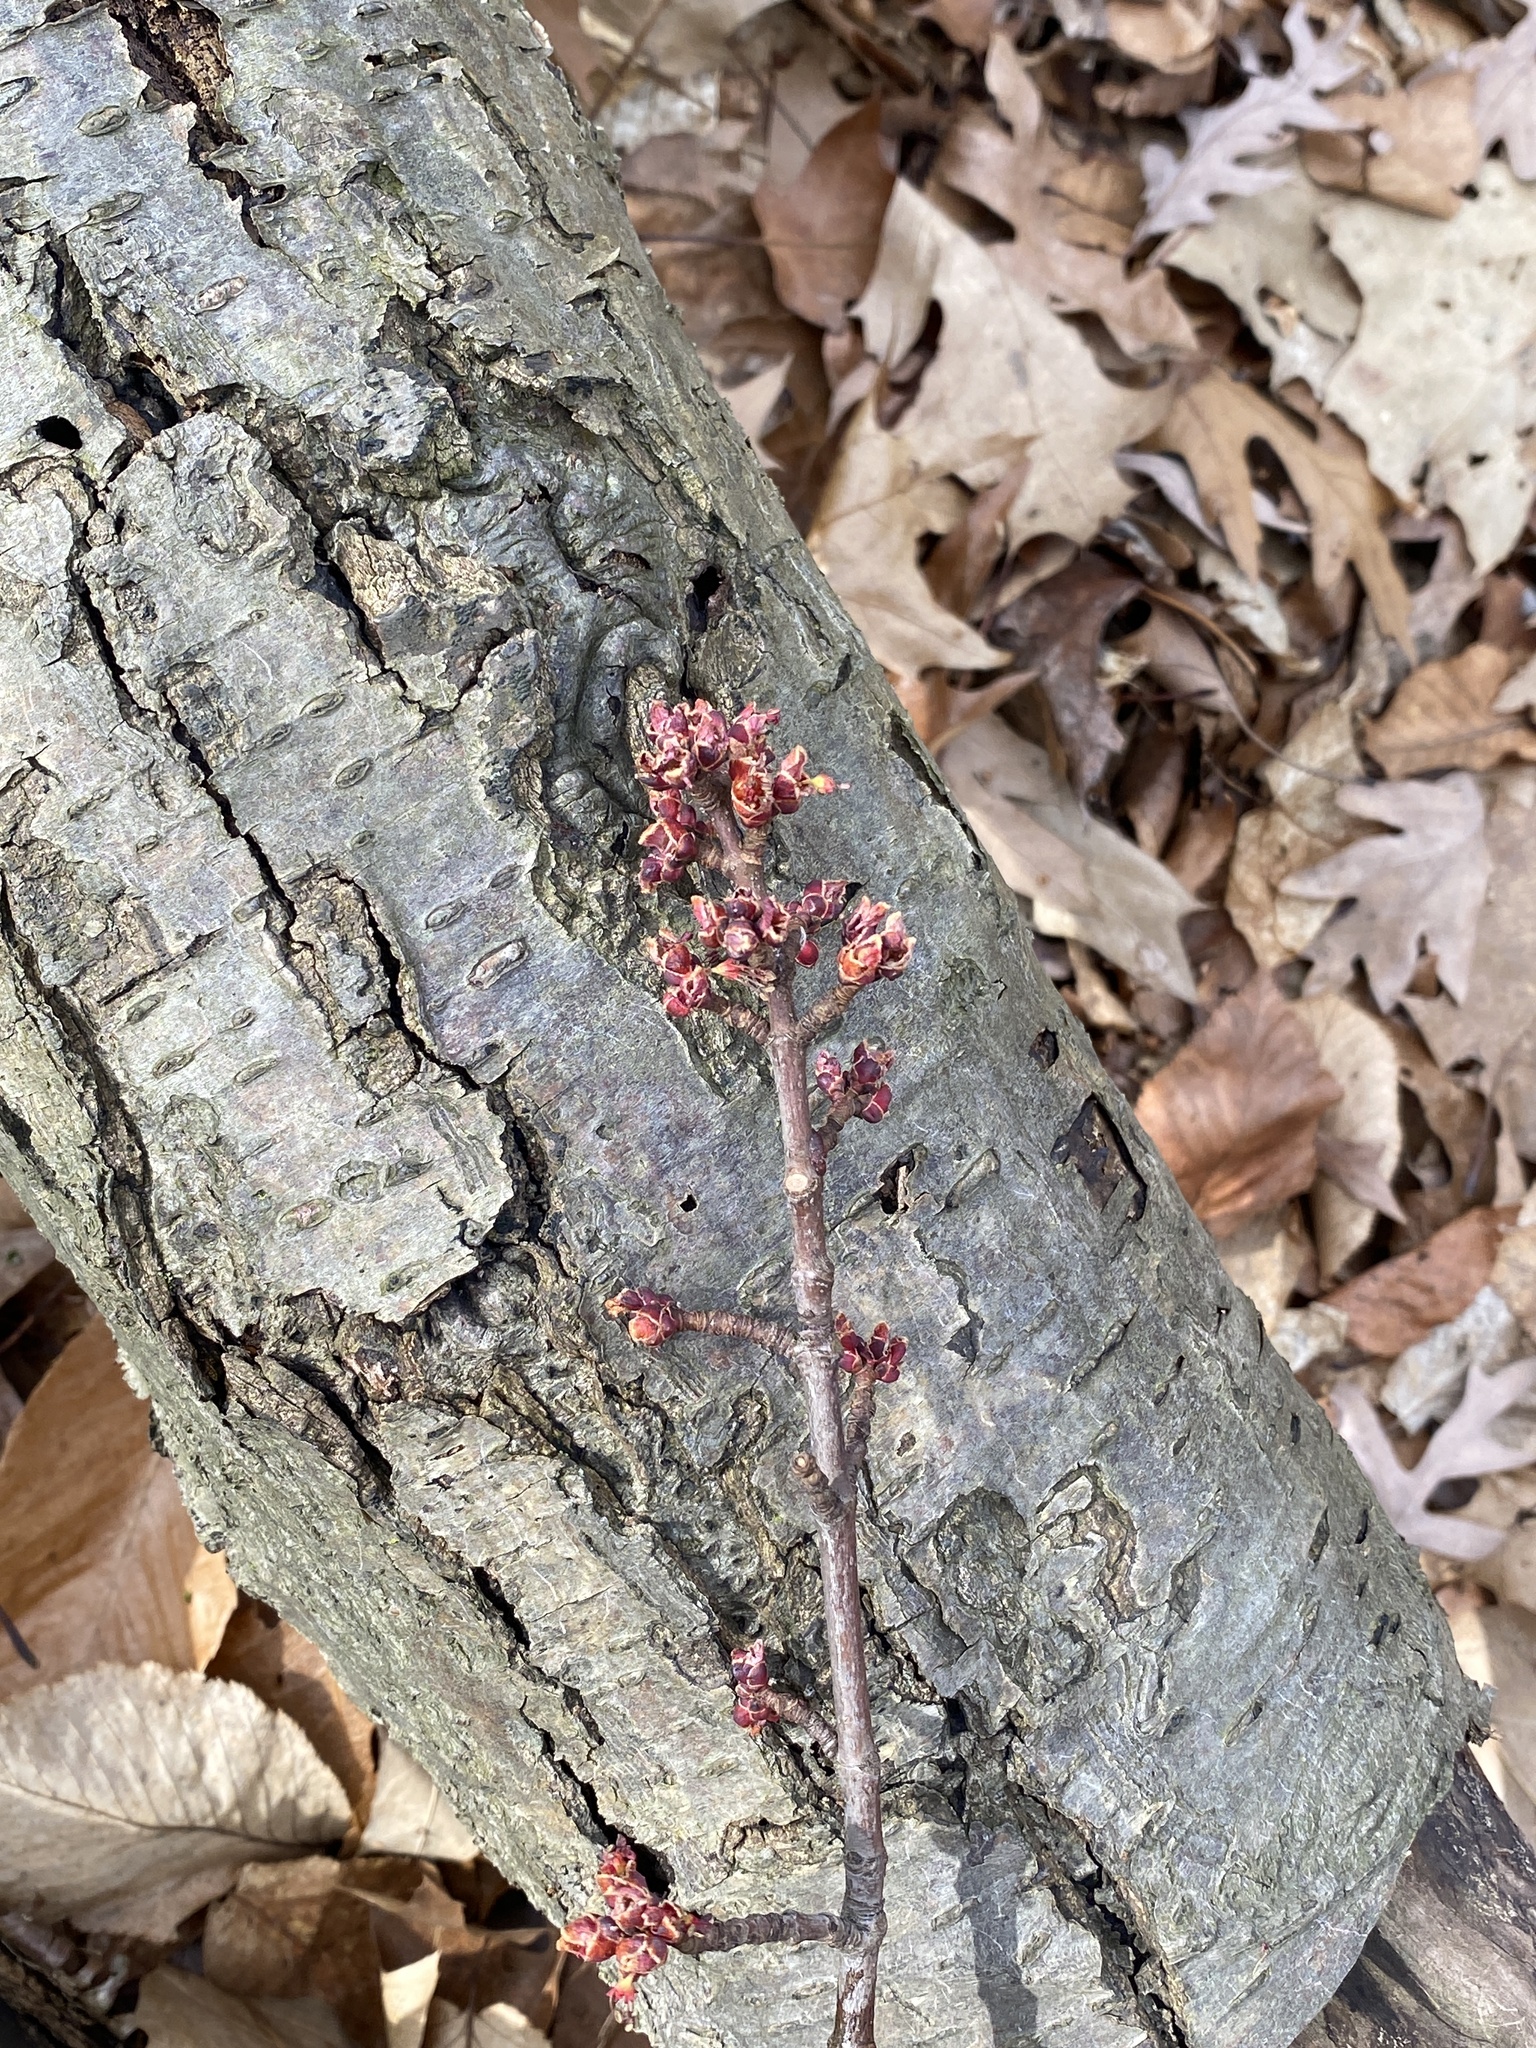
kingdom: Plantae
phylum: Tracheophyta
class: Magnoliopsida
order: Sapindales
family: Sapindaceae
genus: Acer
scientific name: Acer rubrum
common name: Red maple
